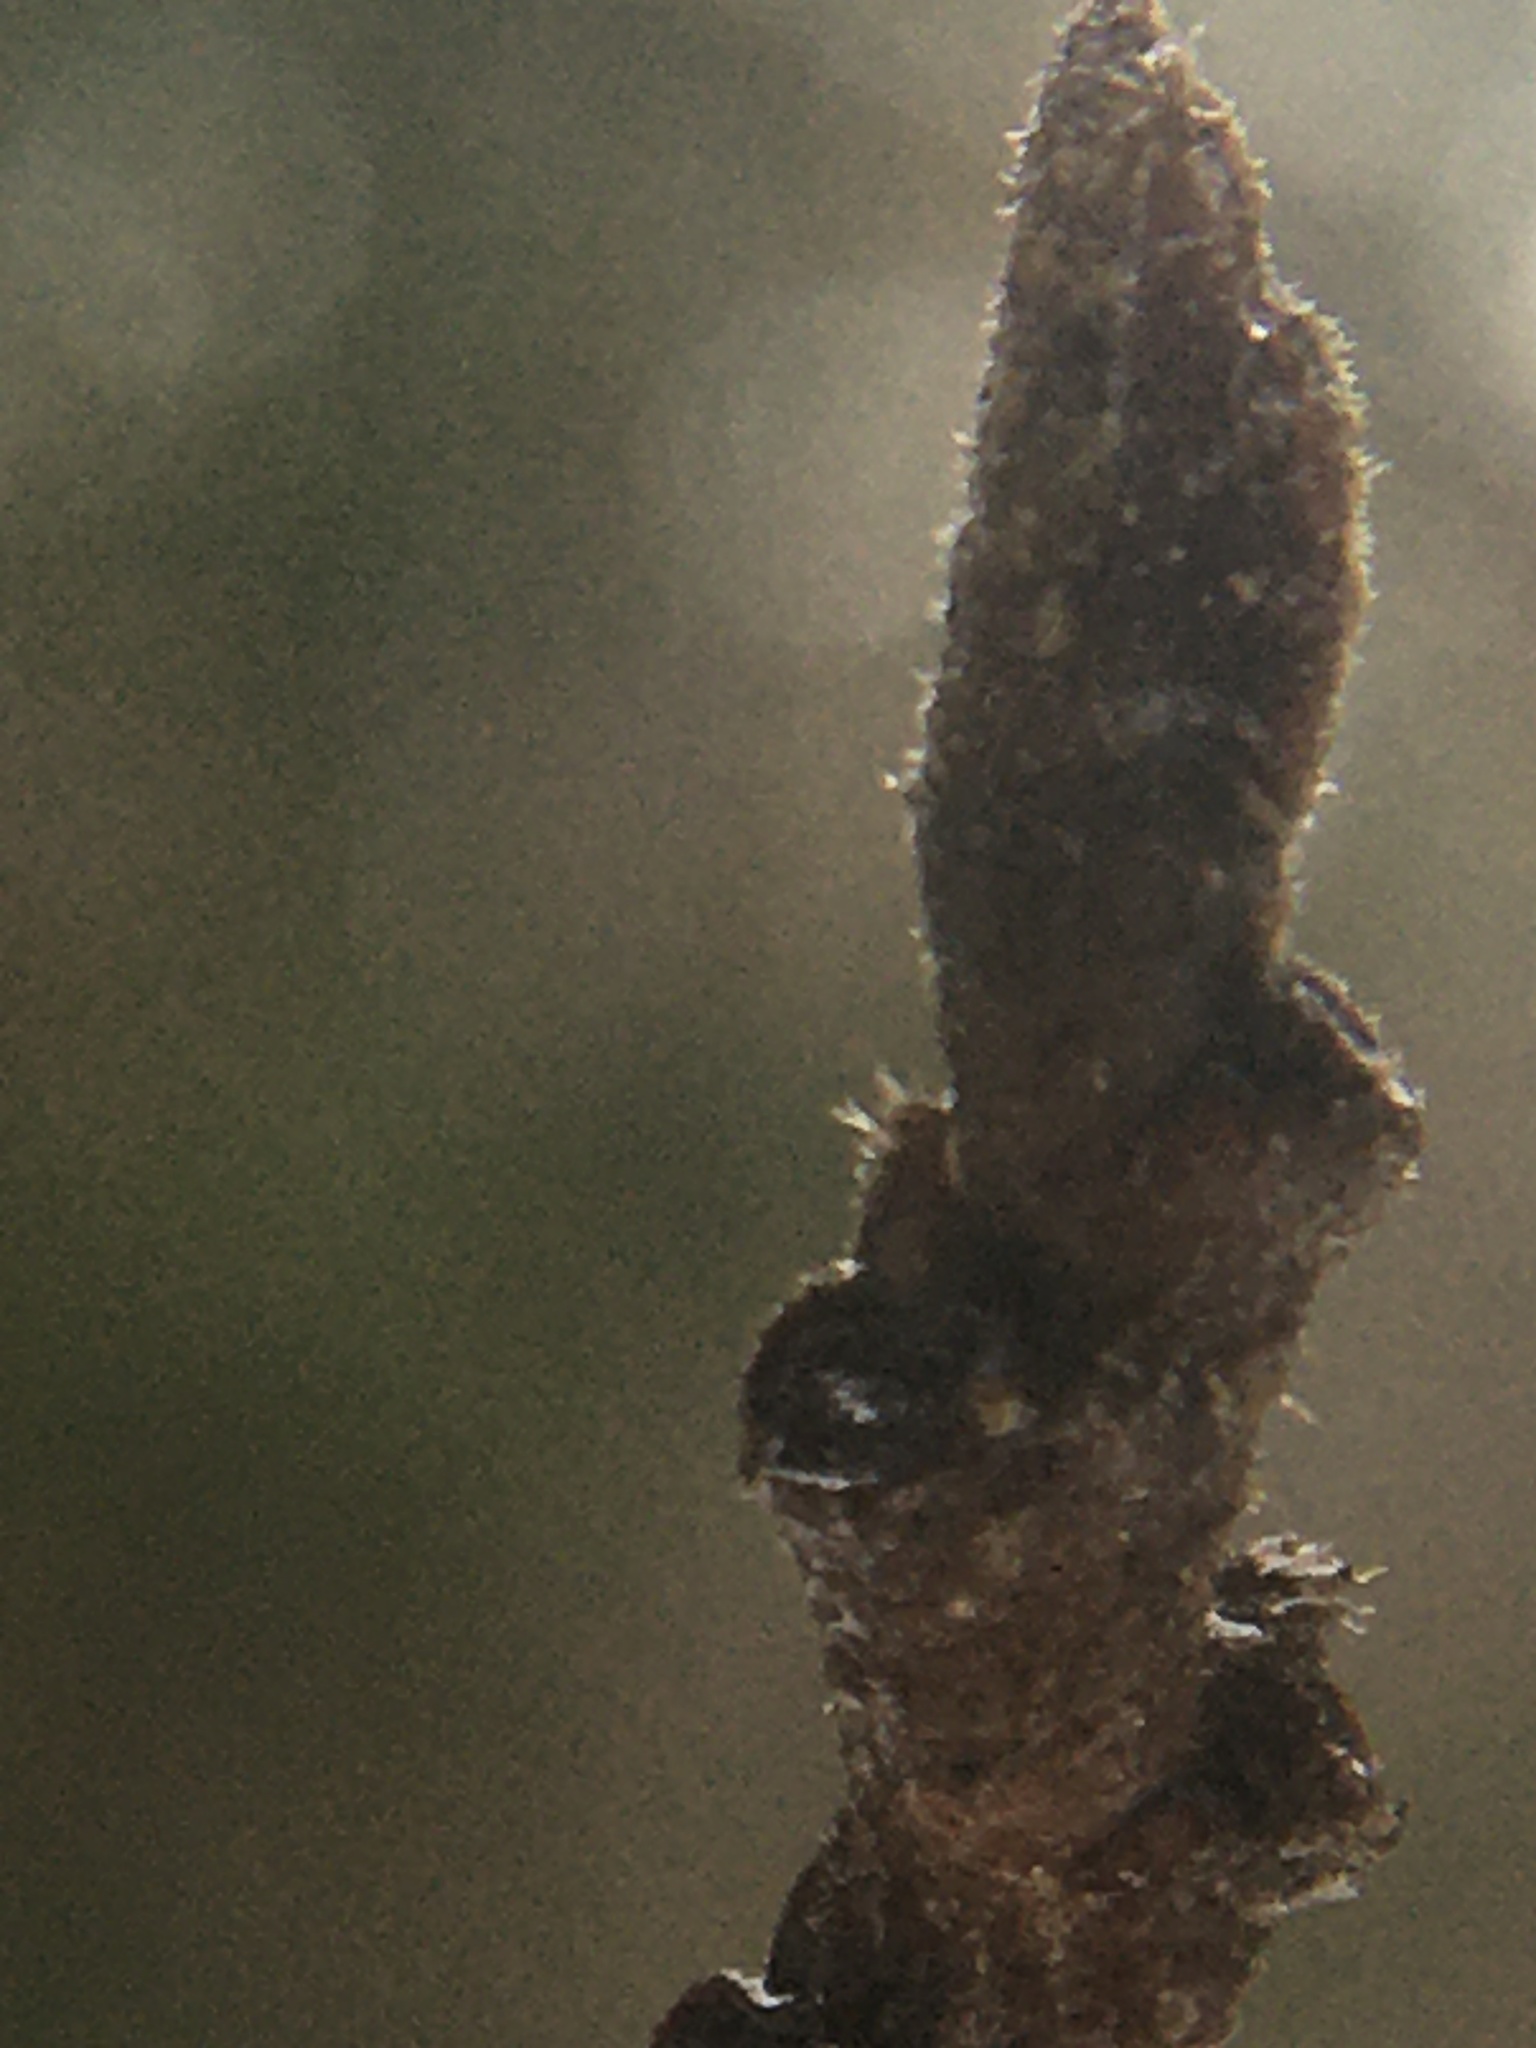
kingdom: Plantae
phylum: Tracheophyta
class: Magnoliopsida
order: Saxifragales
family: Hamamelidaceae
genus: Hamamelis
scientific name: Hamamelis virginiana
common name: Witch-hazel
